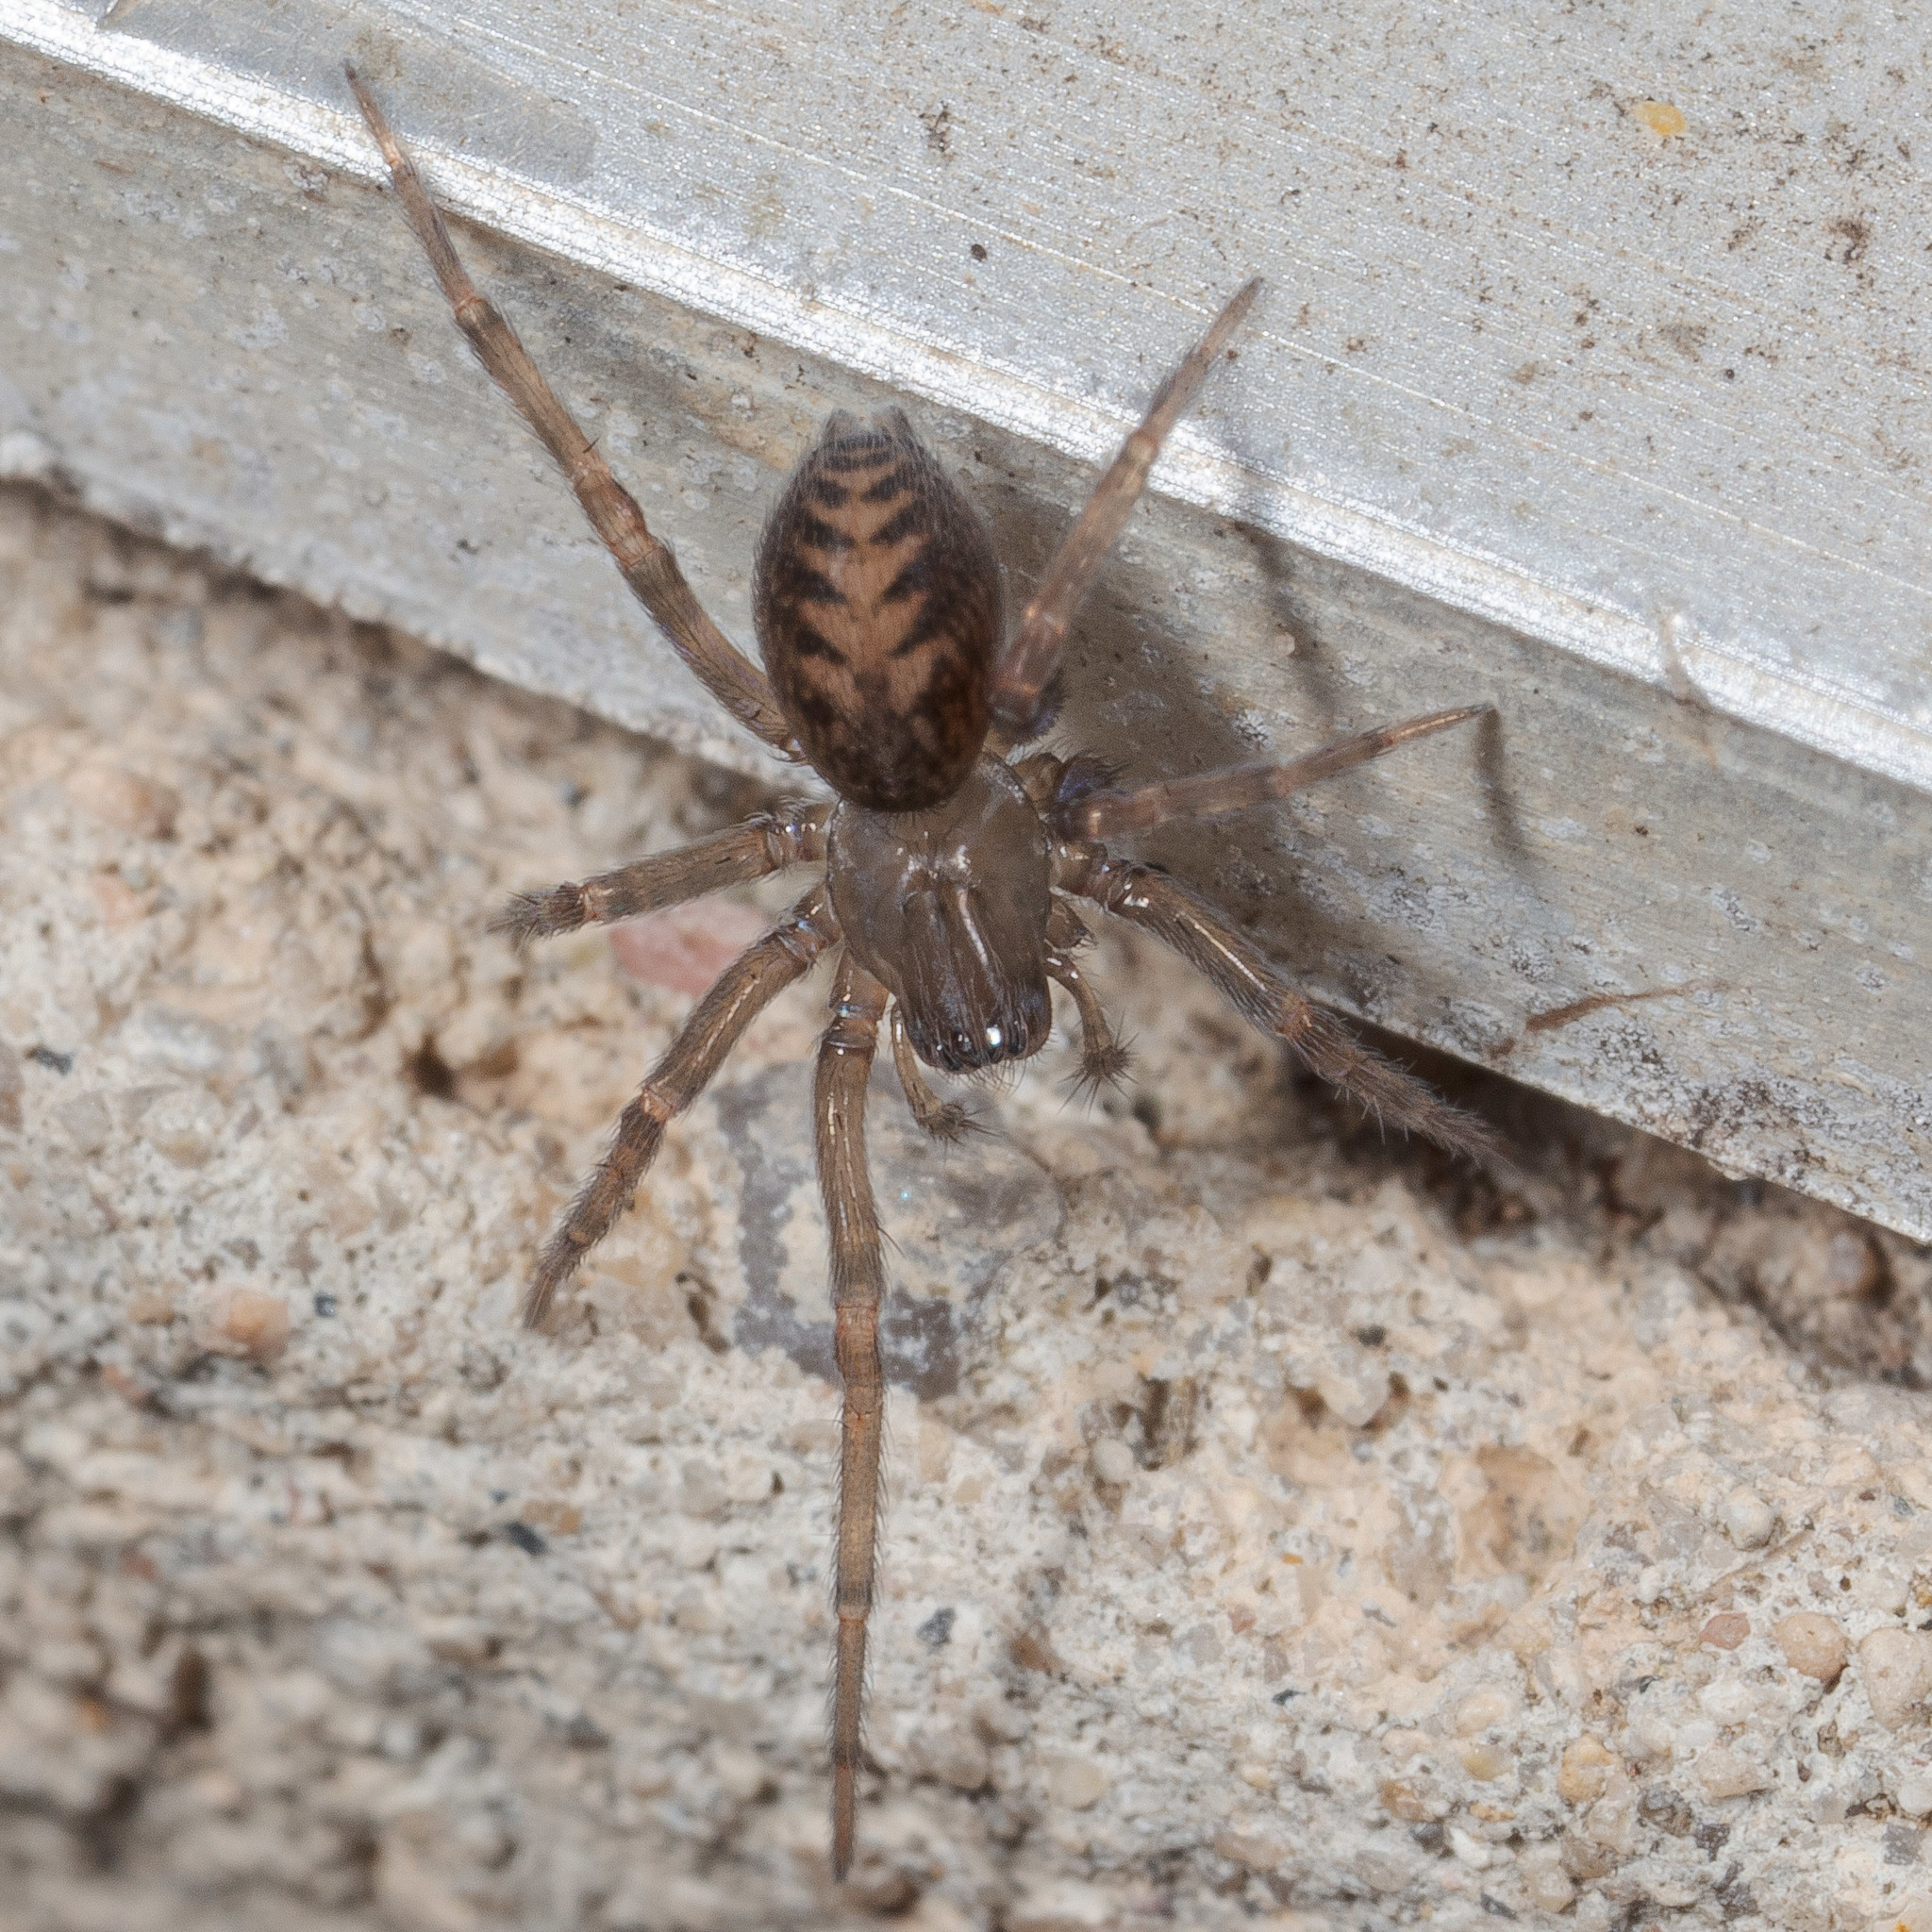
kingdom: Animalia
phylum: Arthropoda
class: Arachnida
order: Araneae
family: Desidae
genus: Metaltella
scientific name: Metaltella simoni
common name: Cribellate spider
